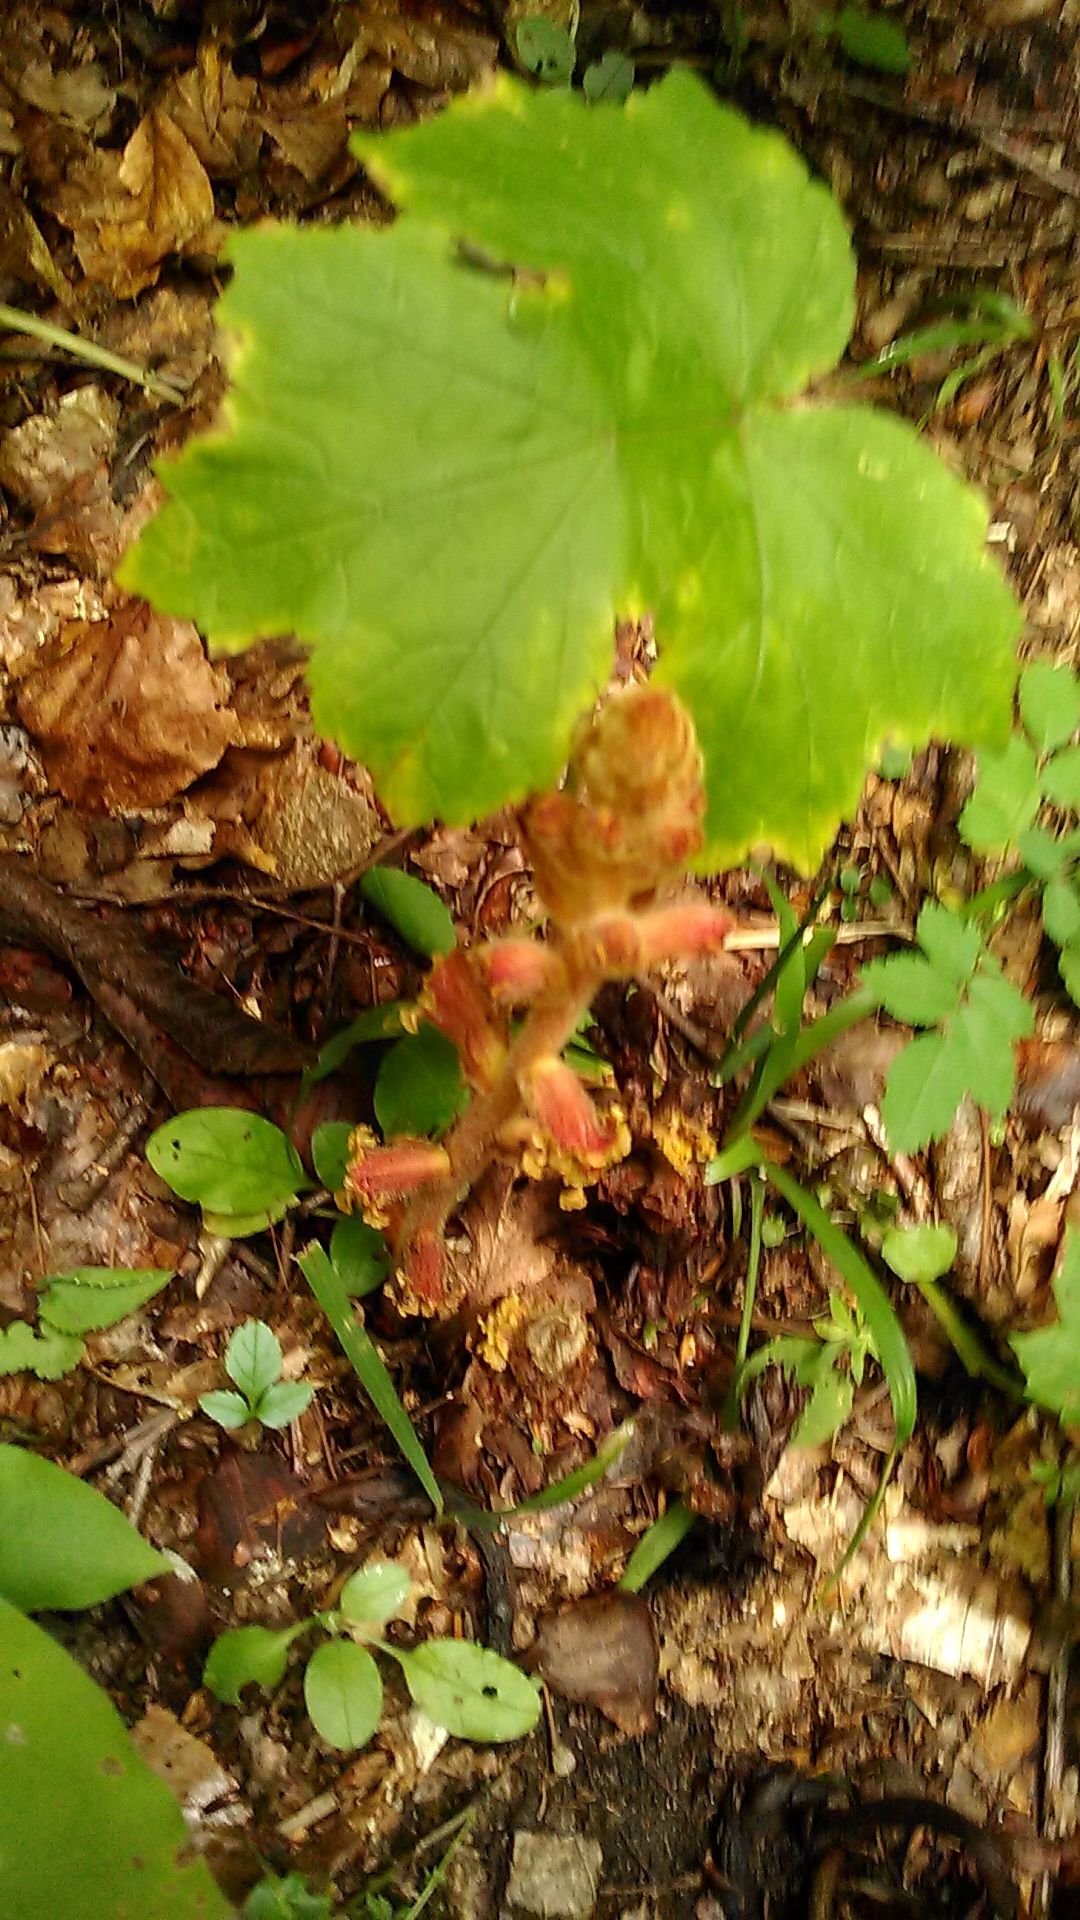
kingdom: Plantae
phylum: Tracheophyta
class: Magnoliopsida
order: Lamiales
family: Orobanchaceae
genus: Orobanche
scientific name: Orobanche laxissima
